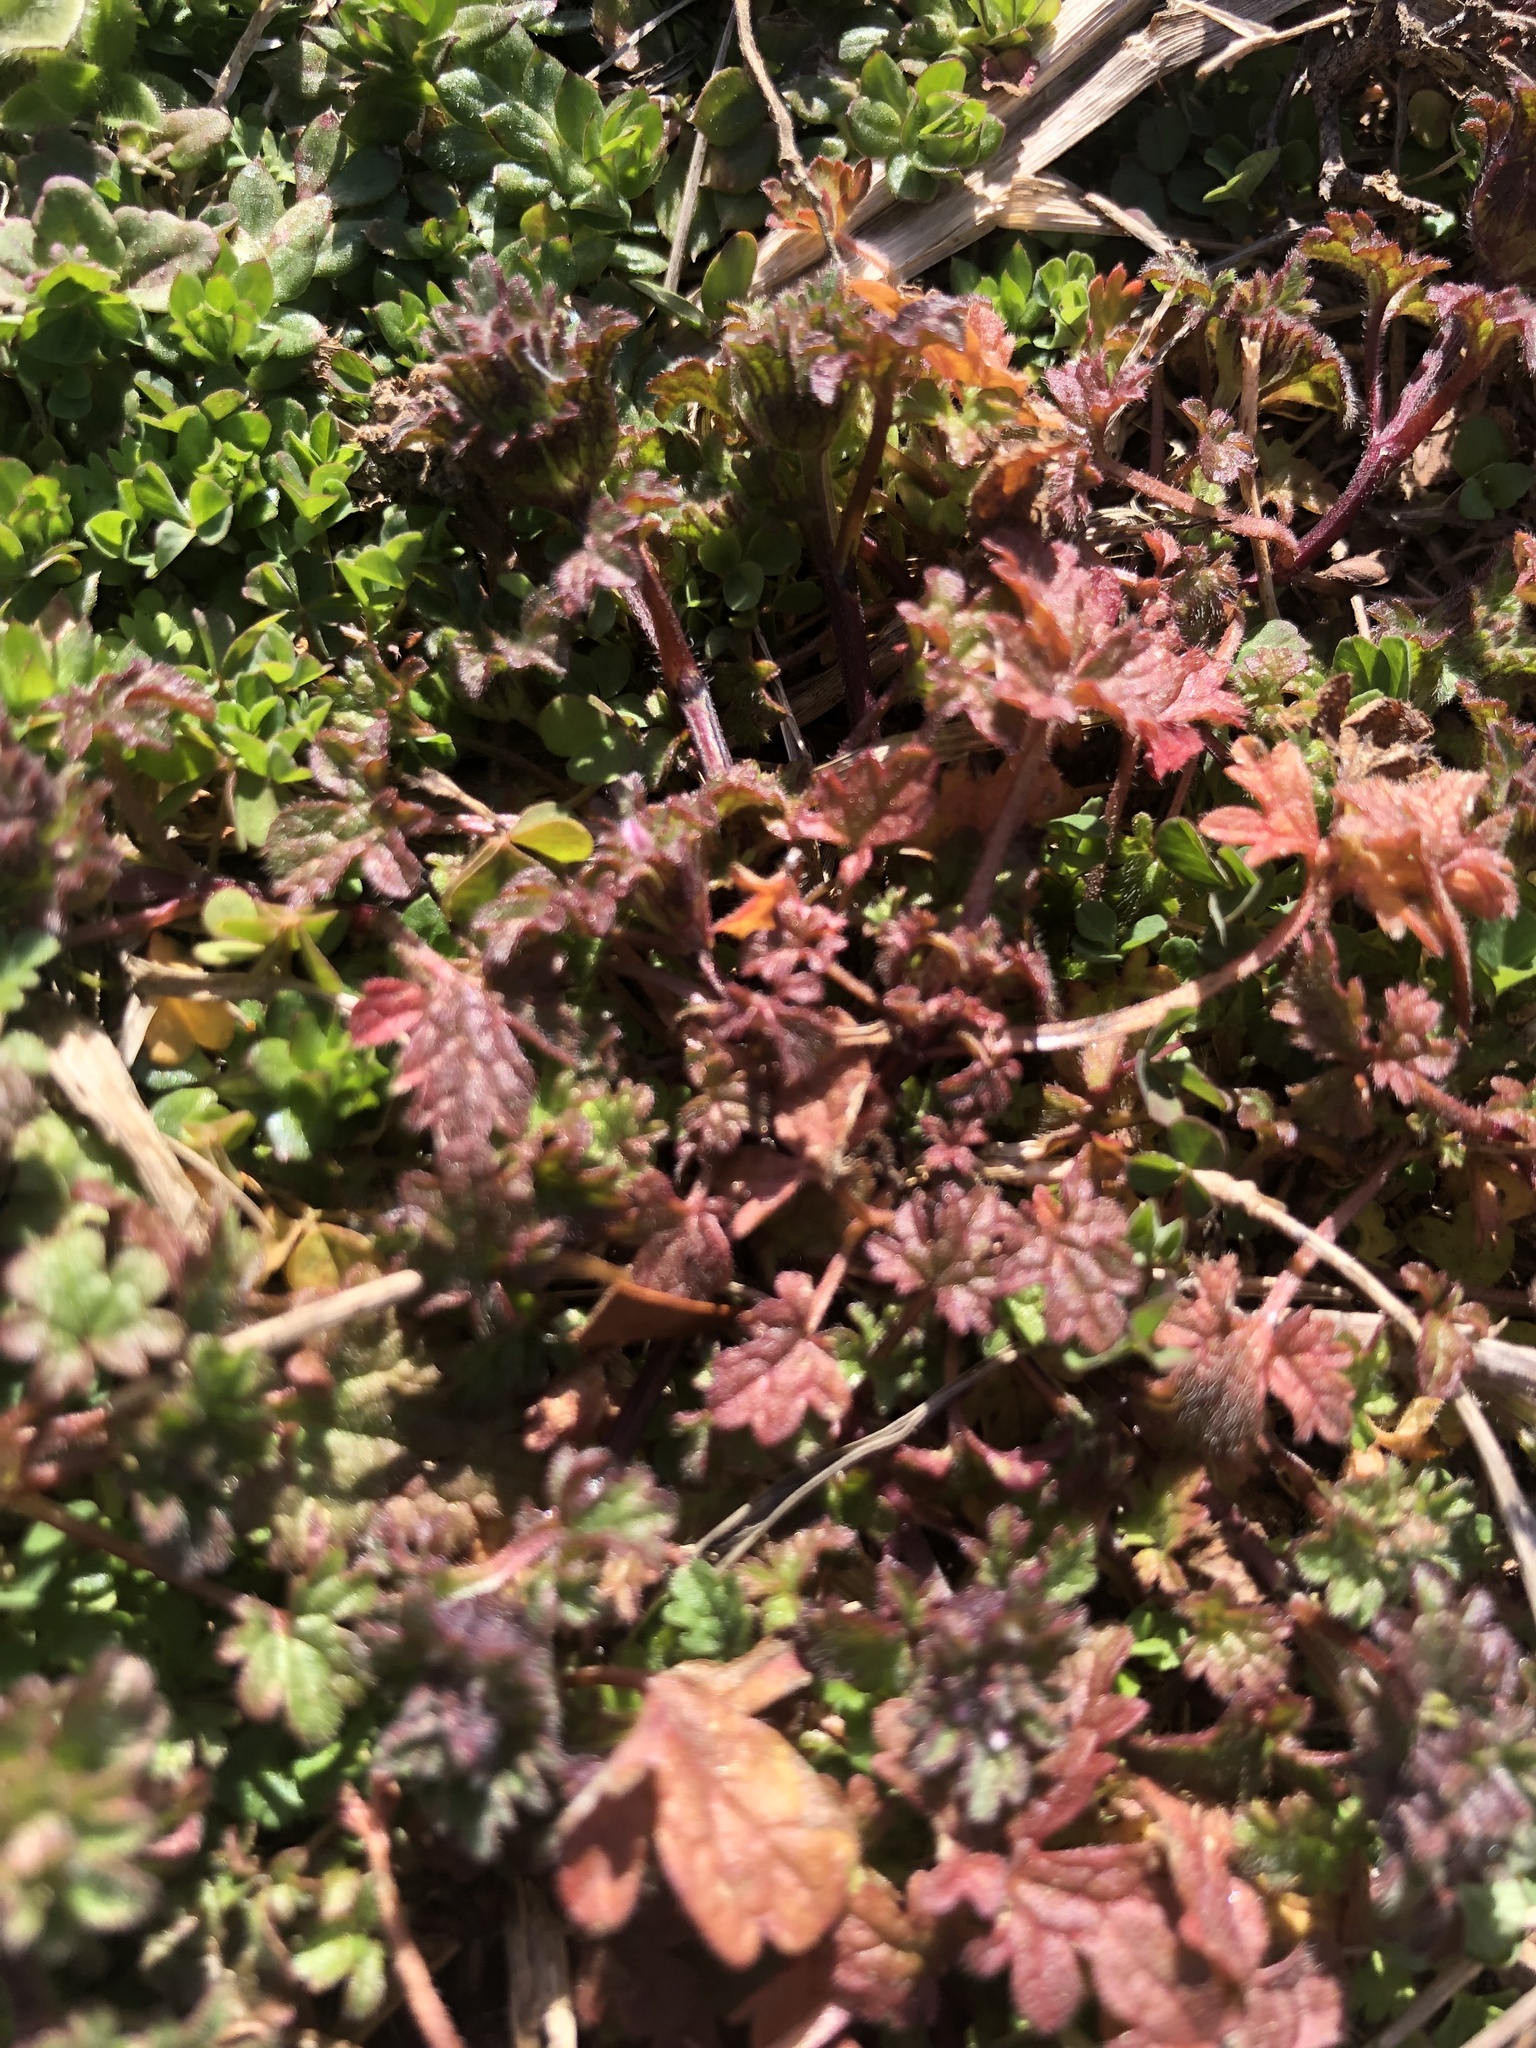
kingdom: Plantae
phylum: Tracheophyta
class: Magnoliopsida
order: Lamiales
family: Lamiaceae
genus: Lamium
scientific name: Lamium amplexicaule
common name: Henbit dead-nettle
